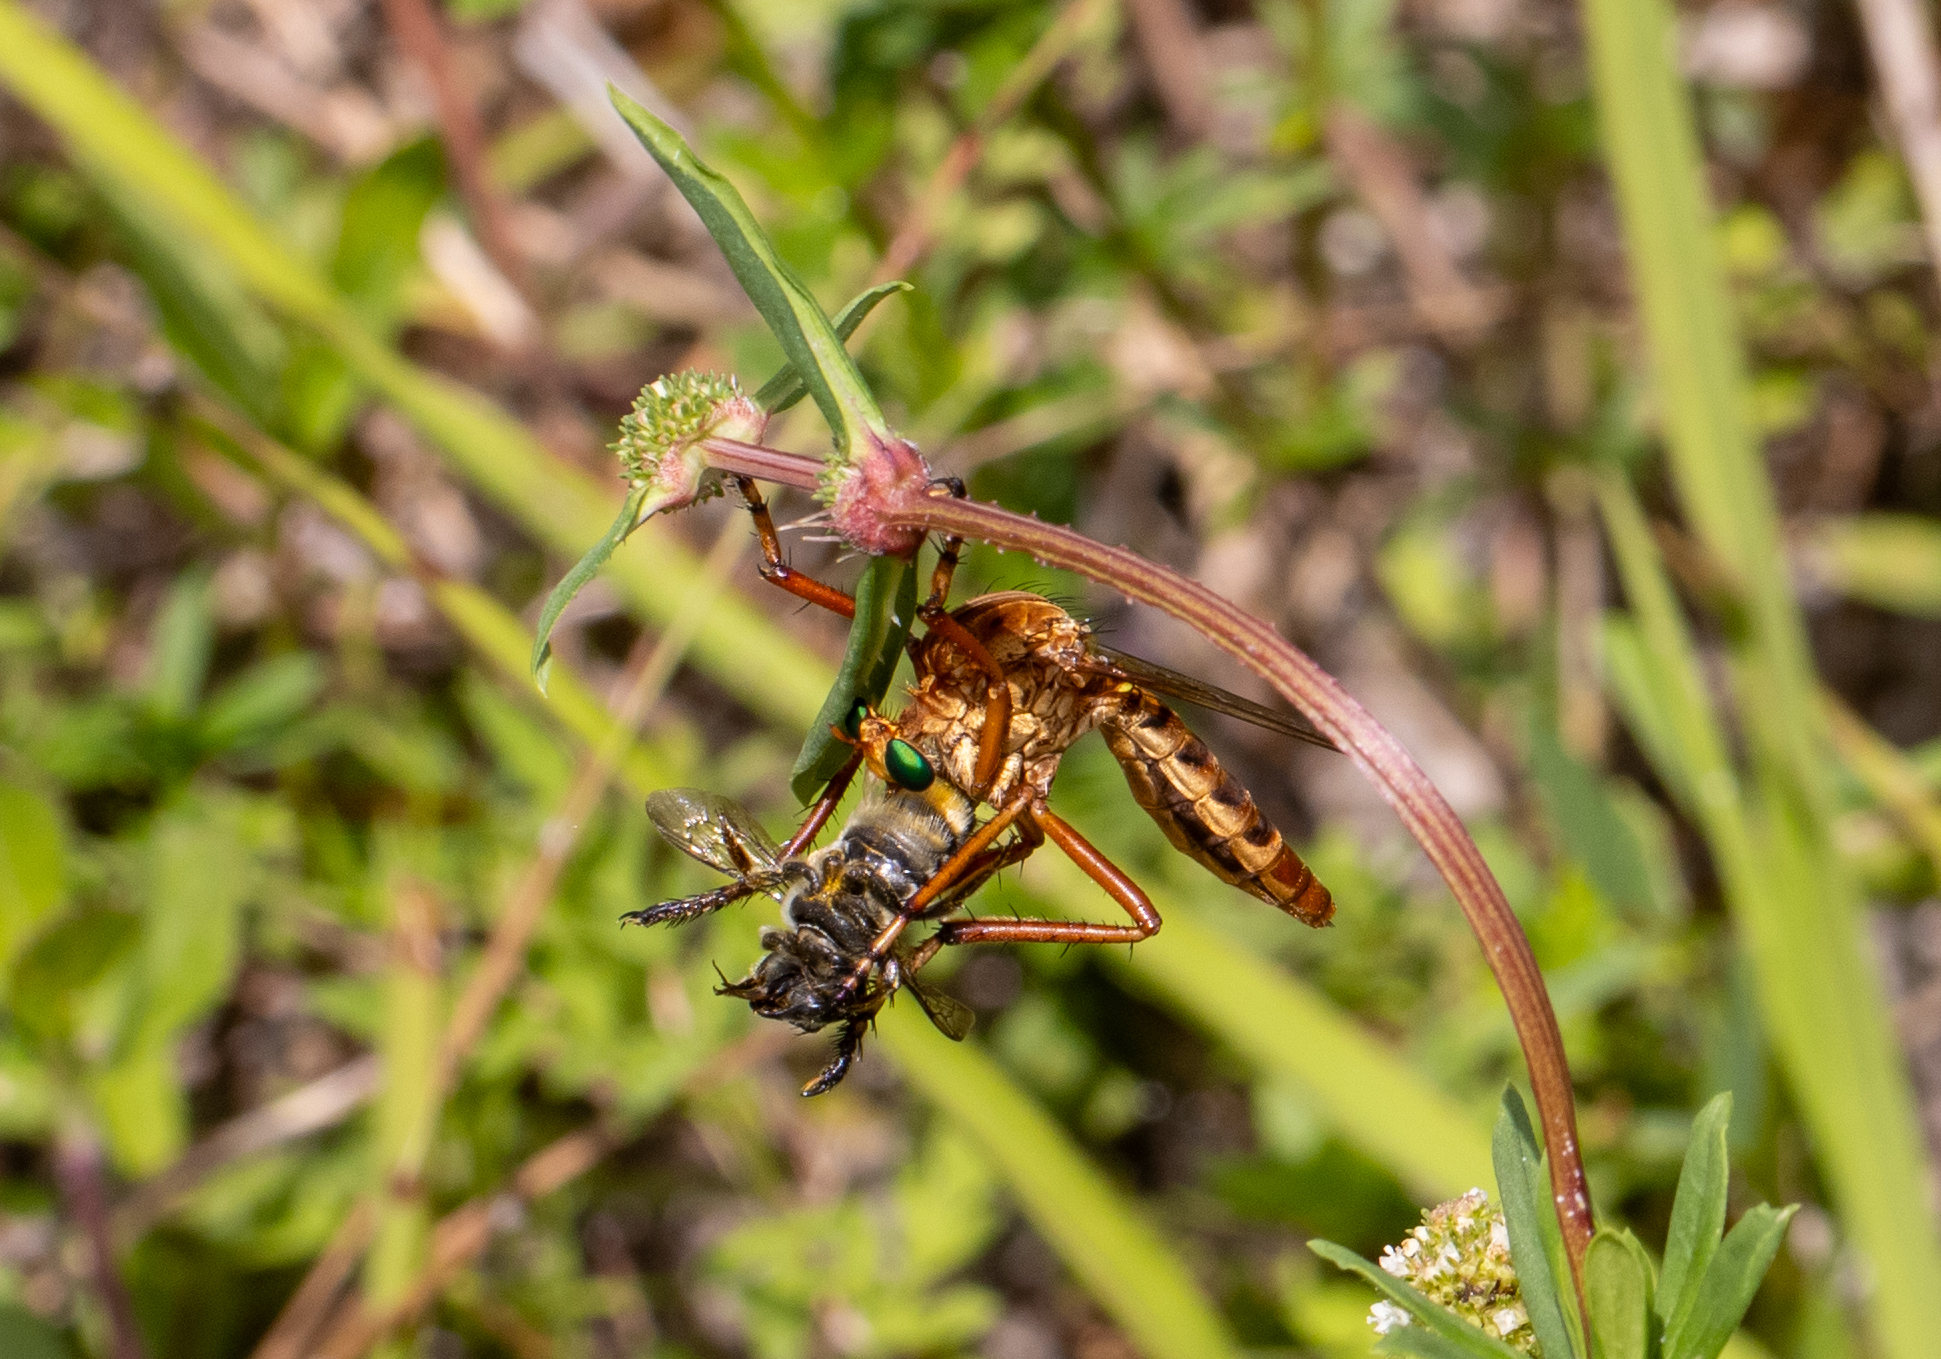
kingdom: Animalia
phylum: Arthropoda
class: Insecta
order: Diptera
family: Asilidae
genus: Diogmites
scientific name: Diogmites crudelis
